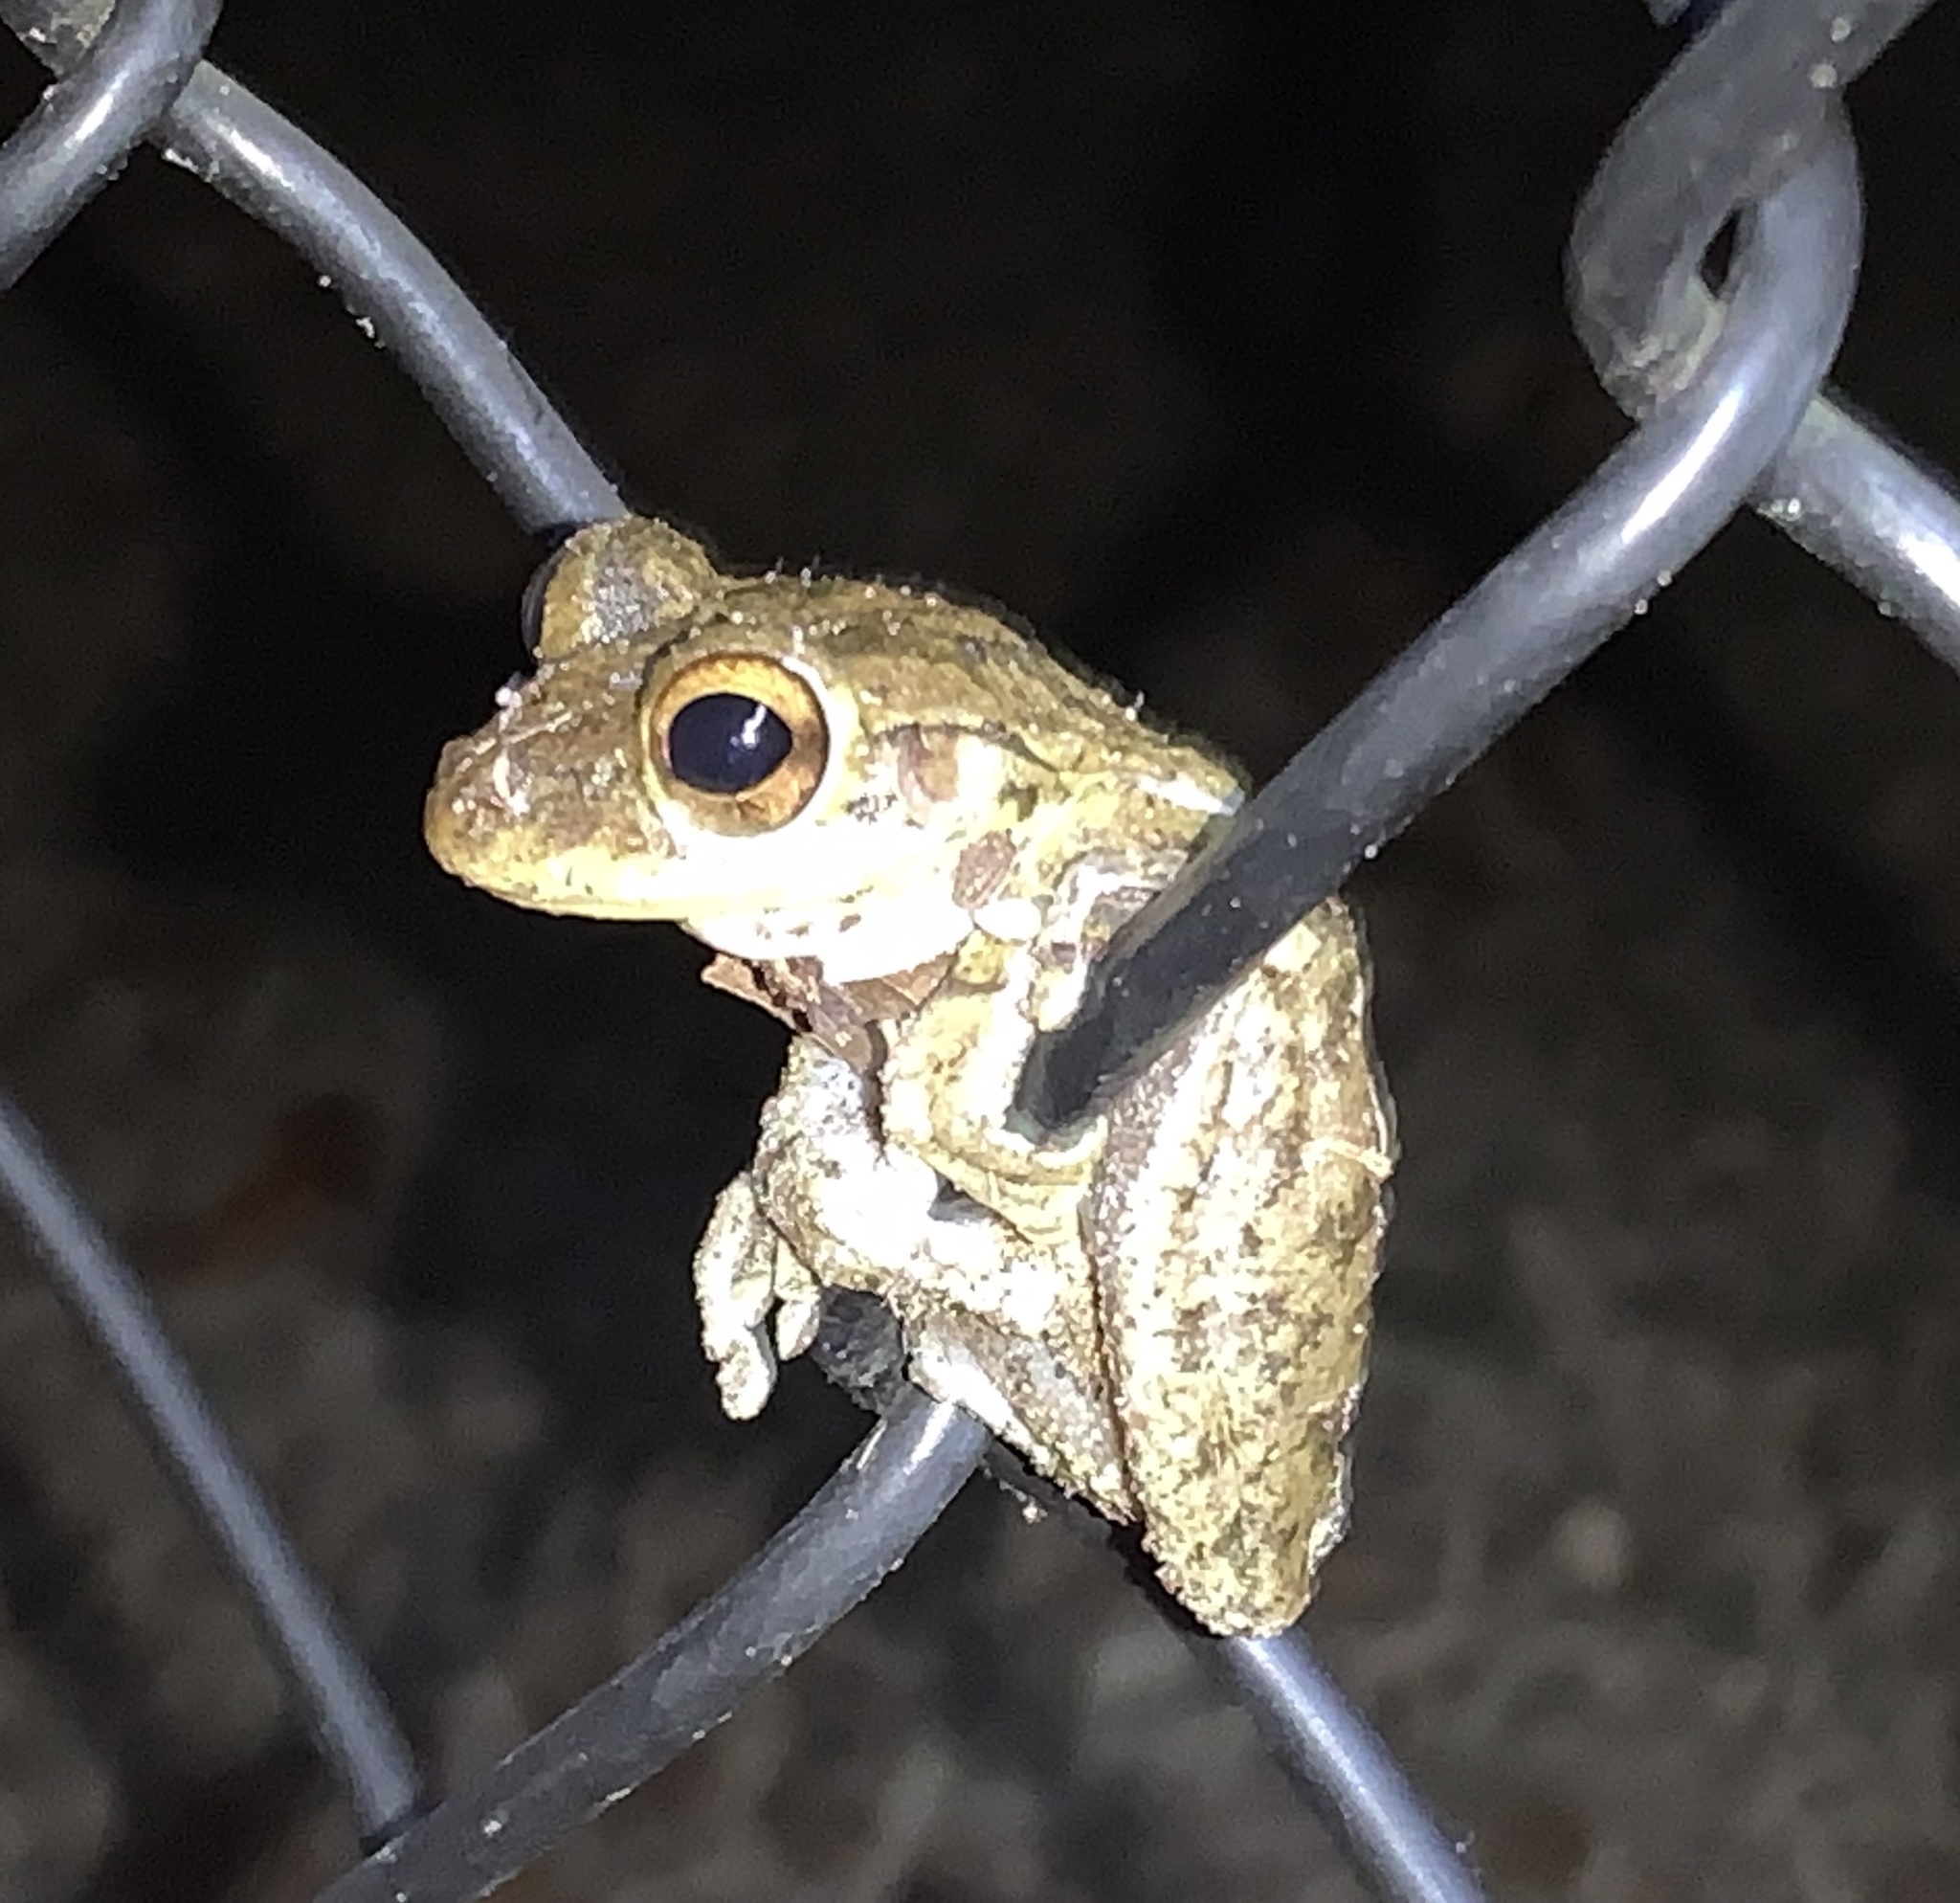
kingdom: Animalia
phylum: Chordata
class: Amphibia
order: Anura
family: Hylidae
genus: Osteopilus
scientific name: Osteopilus septentrionalis
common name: Cuban treefrog
